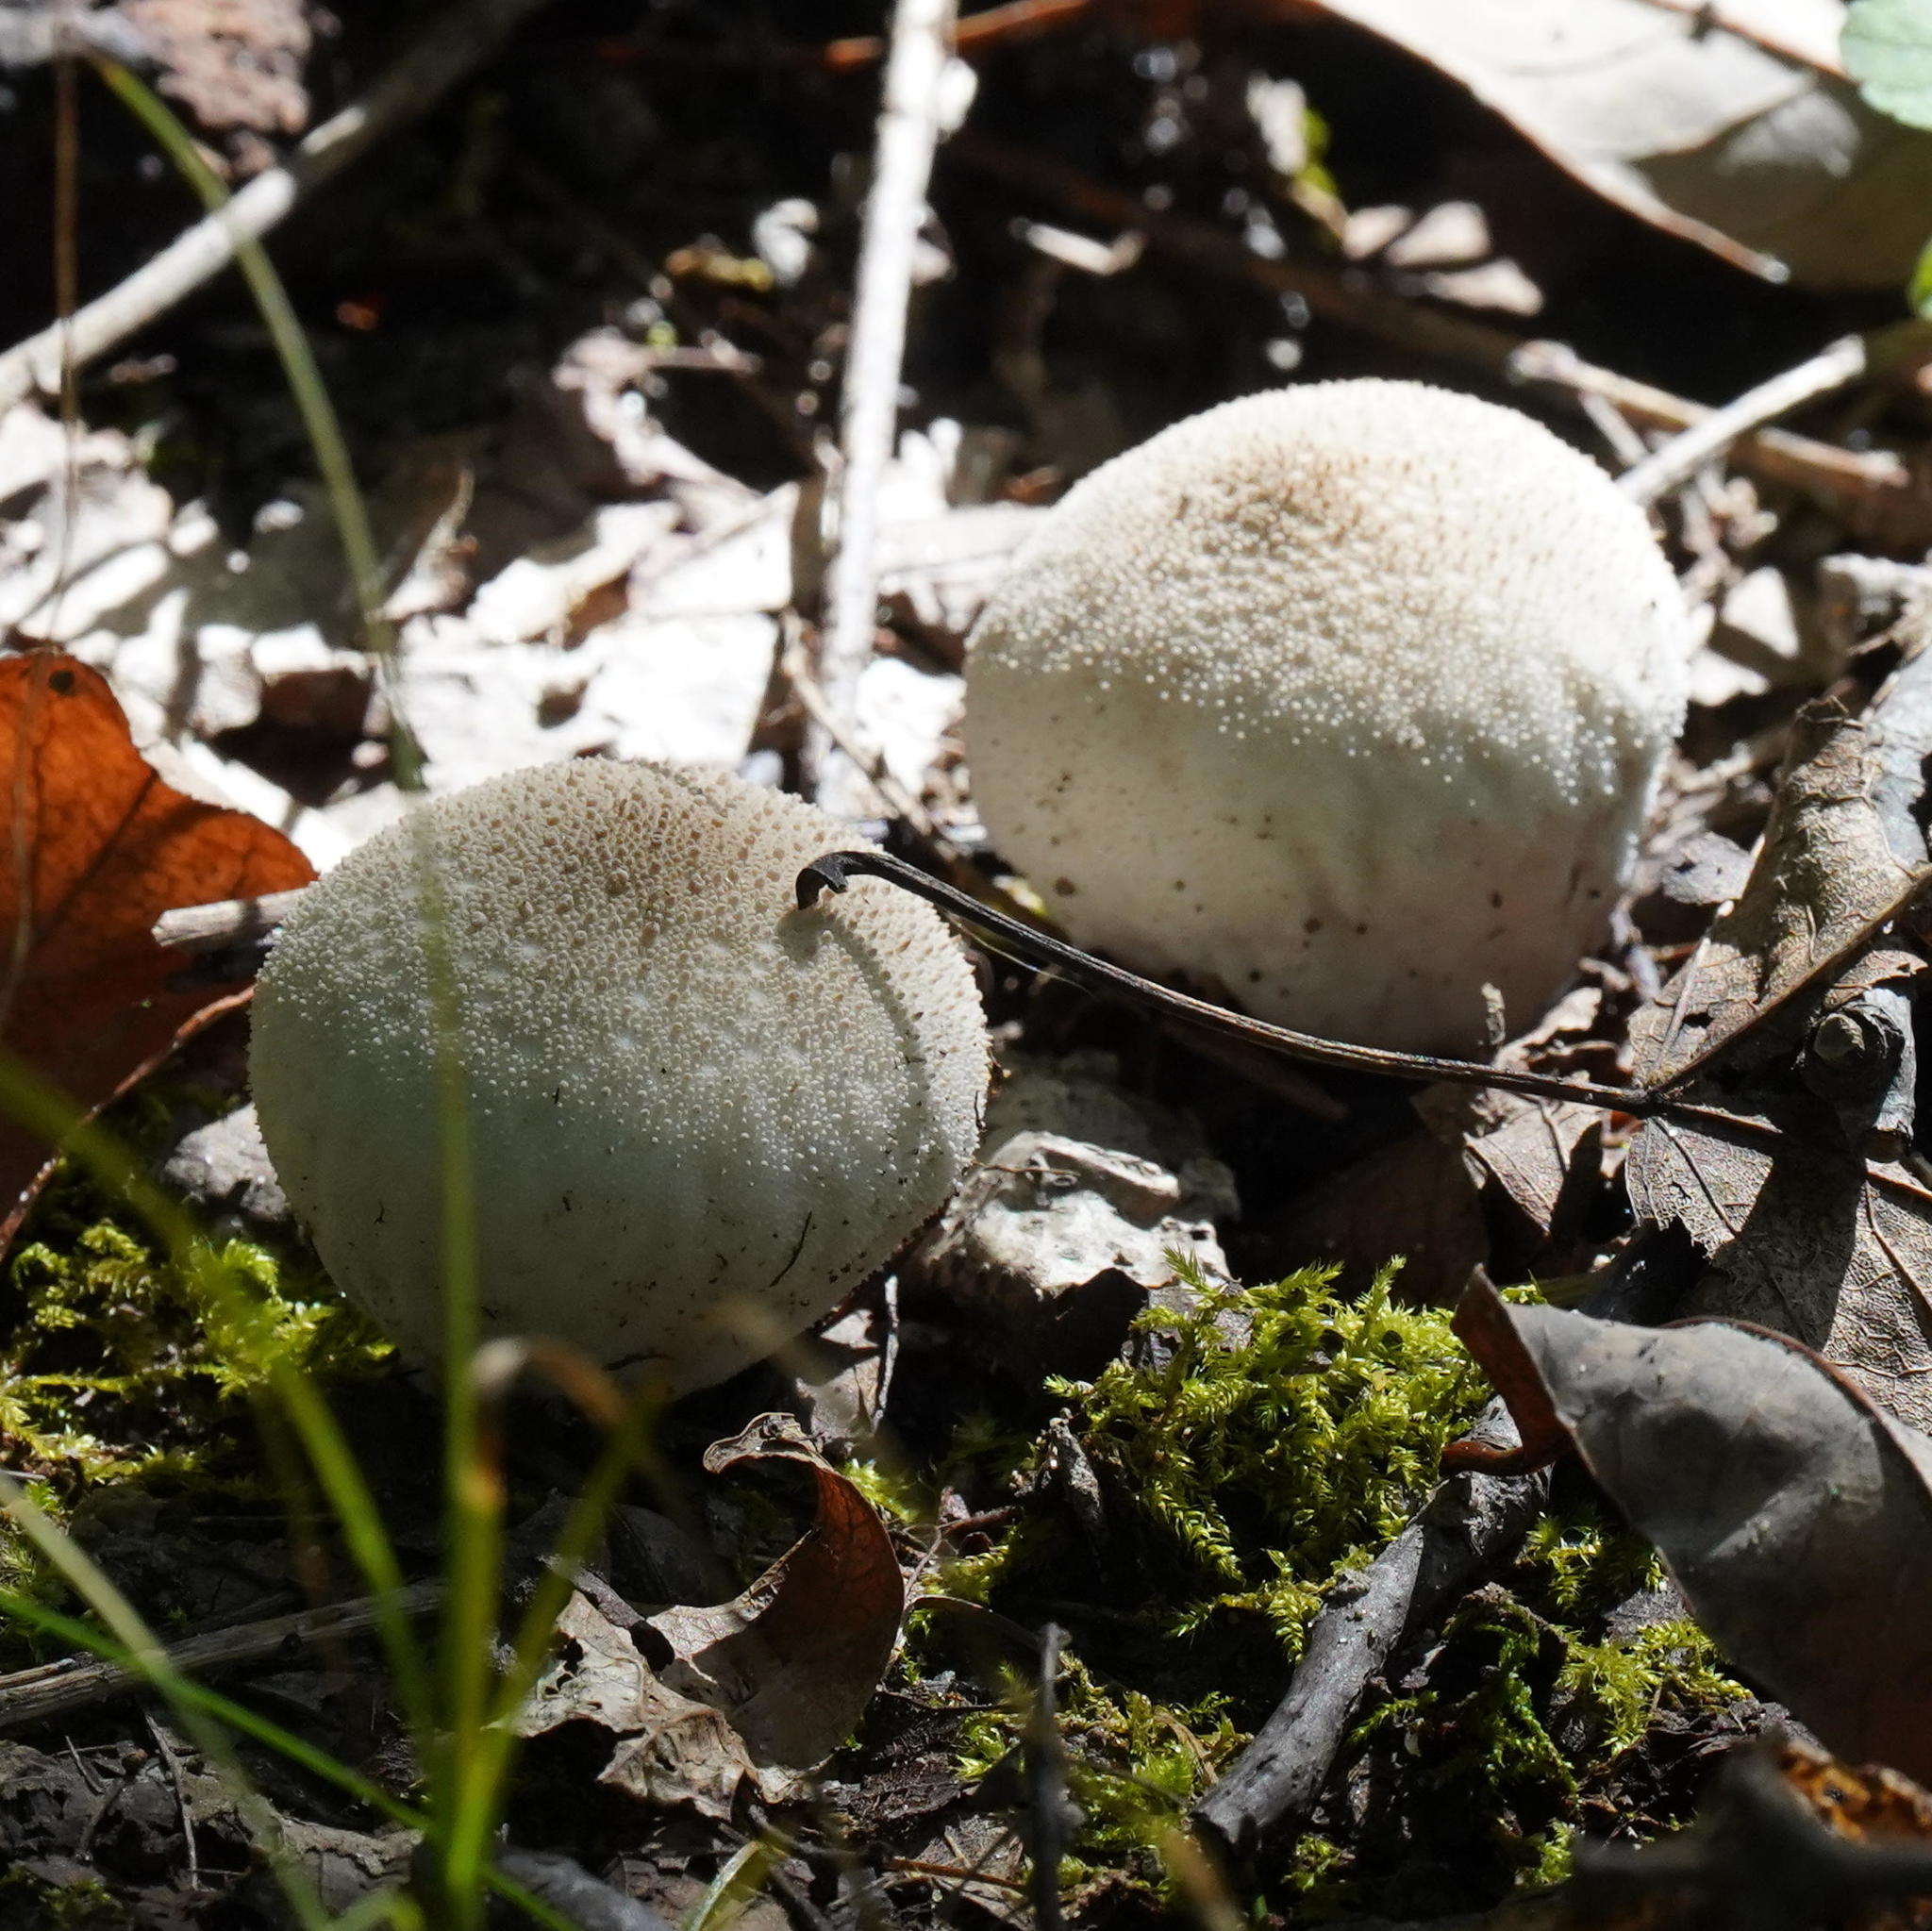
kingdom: Fungi
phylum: Basidiomycota
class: Agaricomycetes
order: Agaricales
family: Lycoperdaceae
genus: Lycoperdon
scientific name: Lycoperdon perlatum
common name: Common puffball
